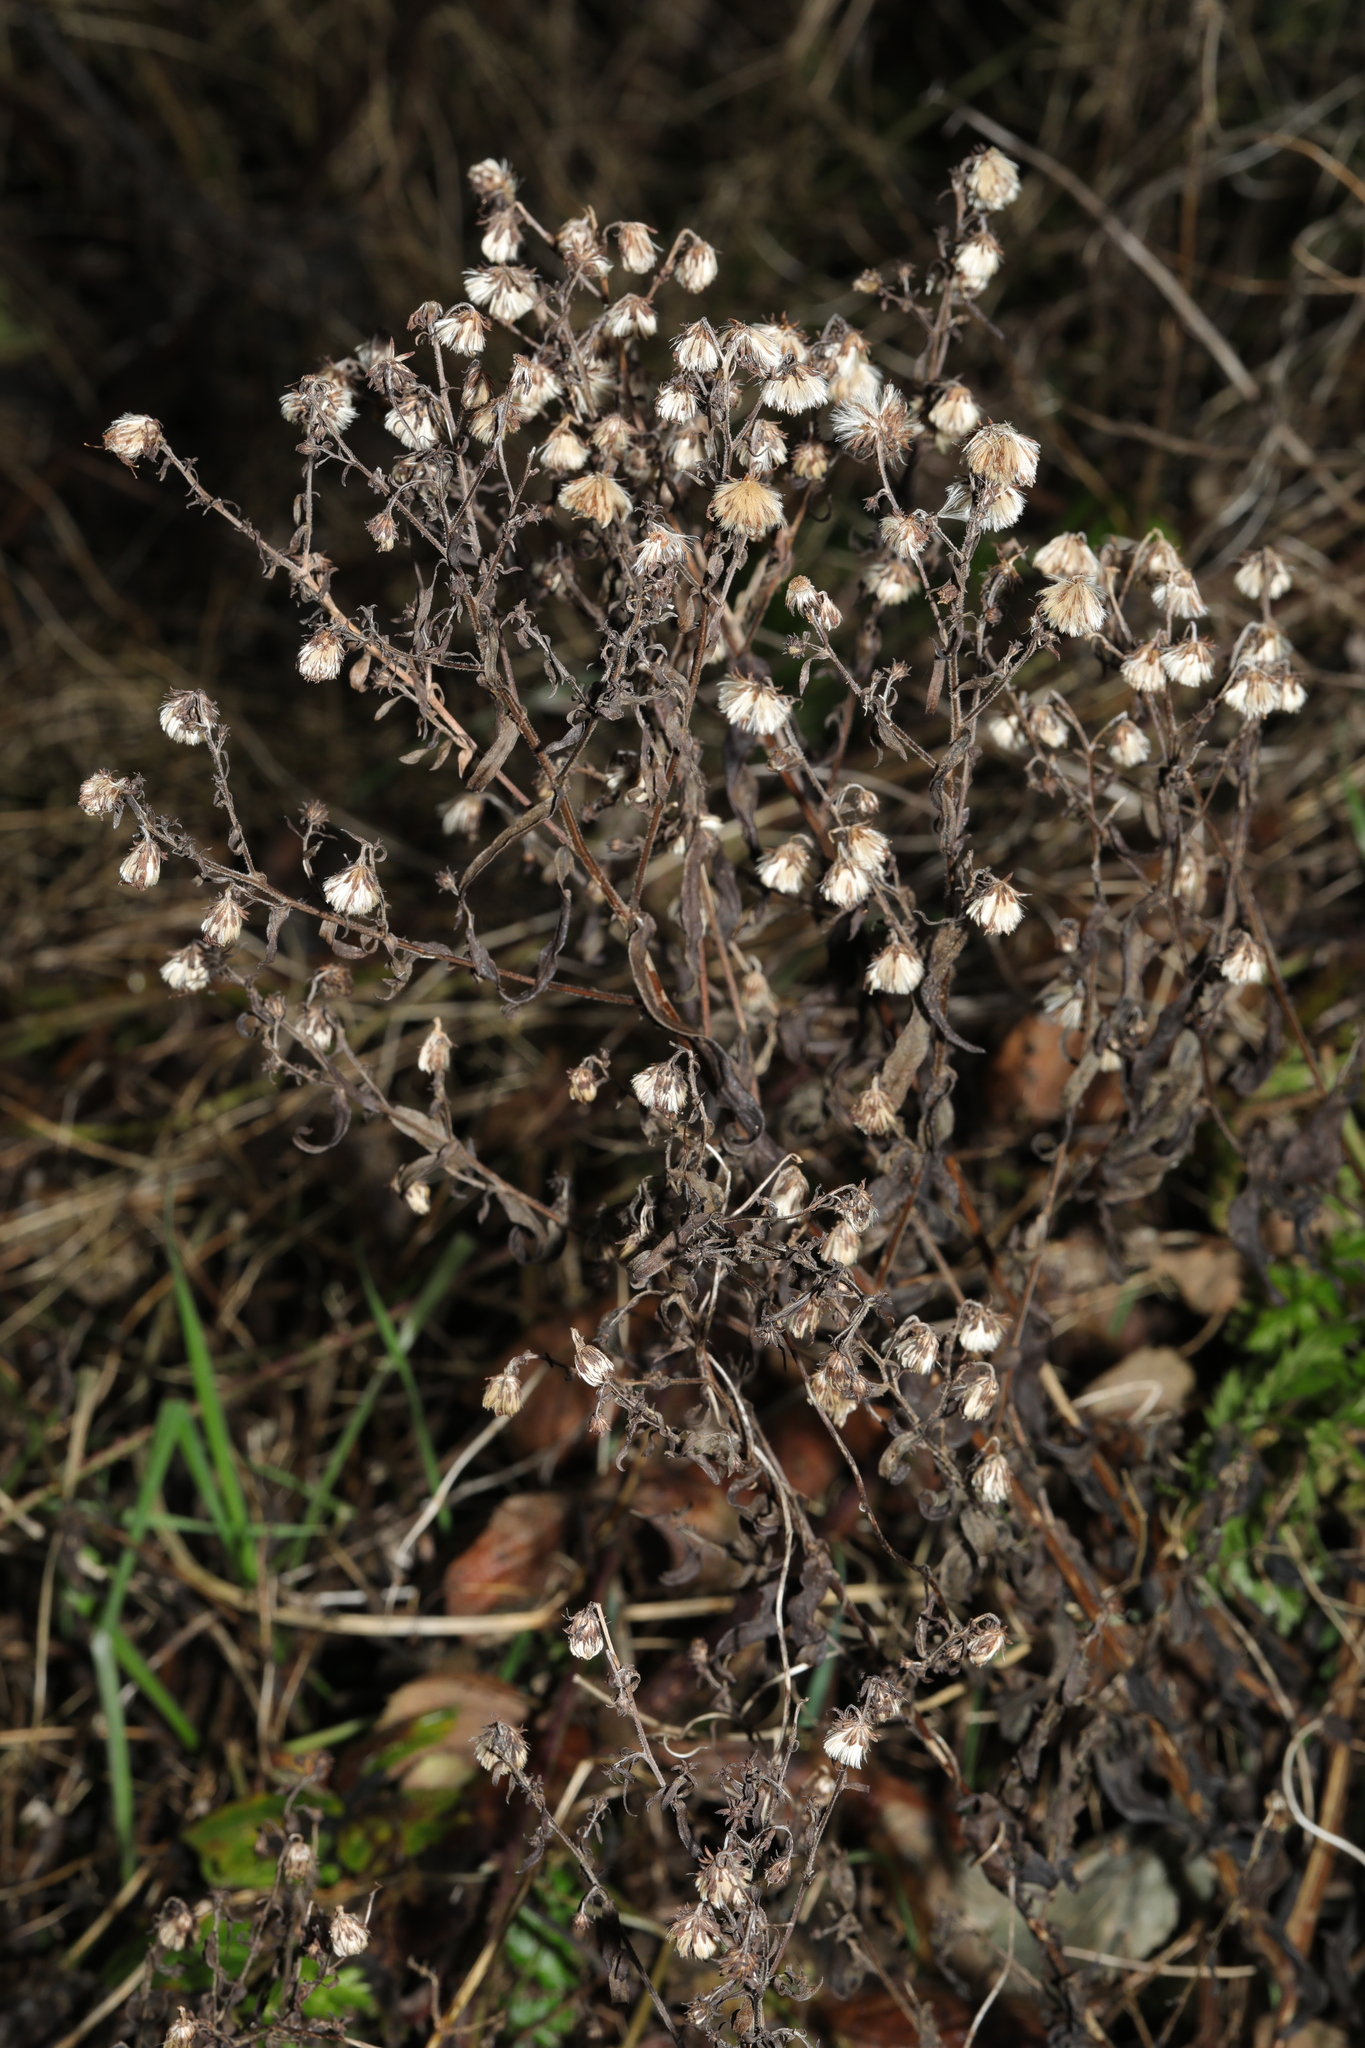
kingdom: Plantae
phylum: Tracheophyta
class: Magnoliopsida
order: Asterales
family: Asteraceae
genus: Symphyotrichum
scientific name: Symphyotrichum
